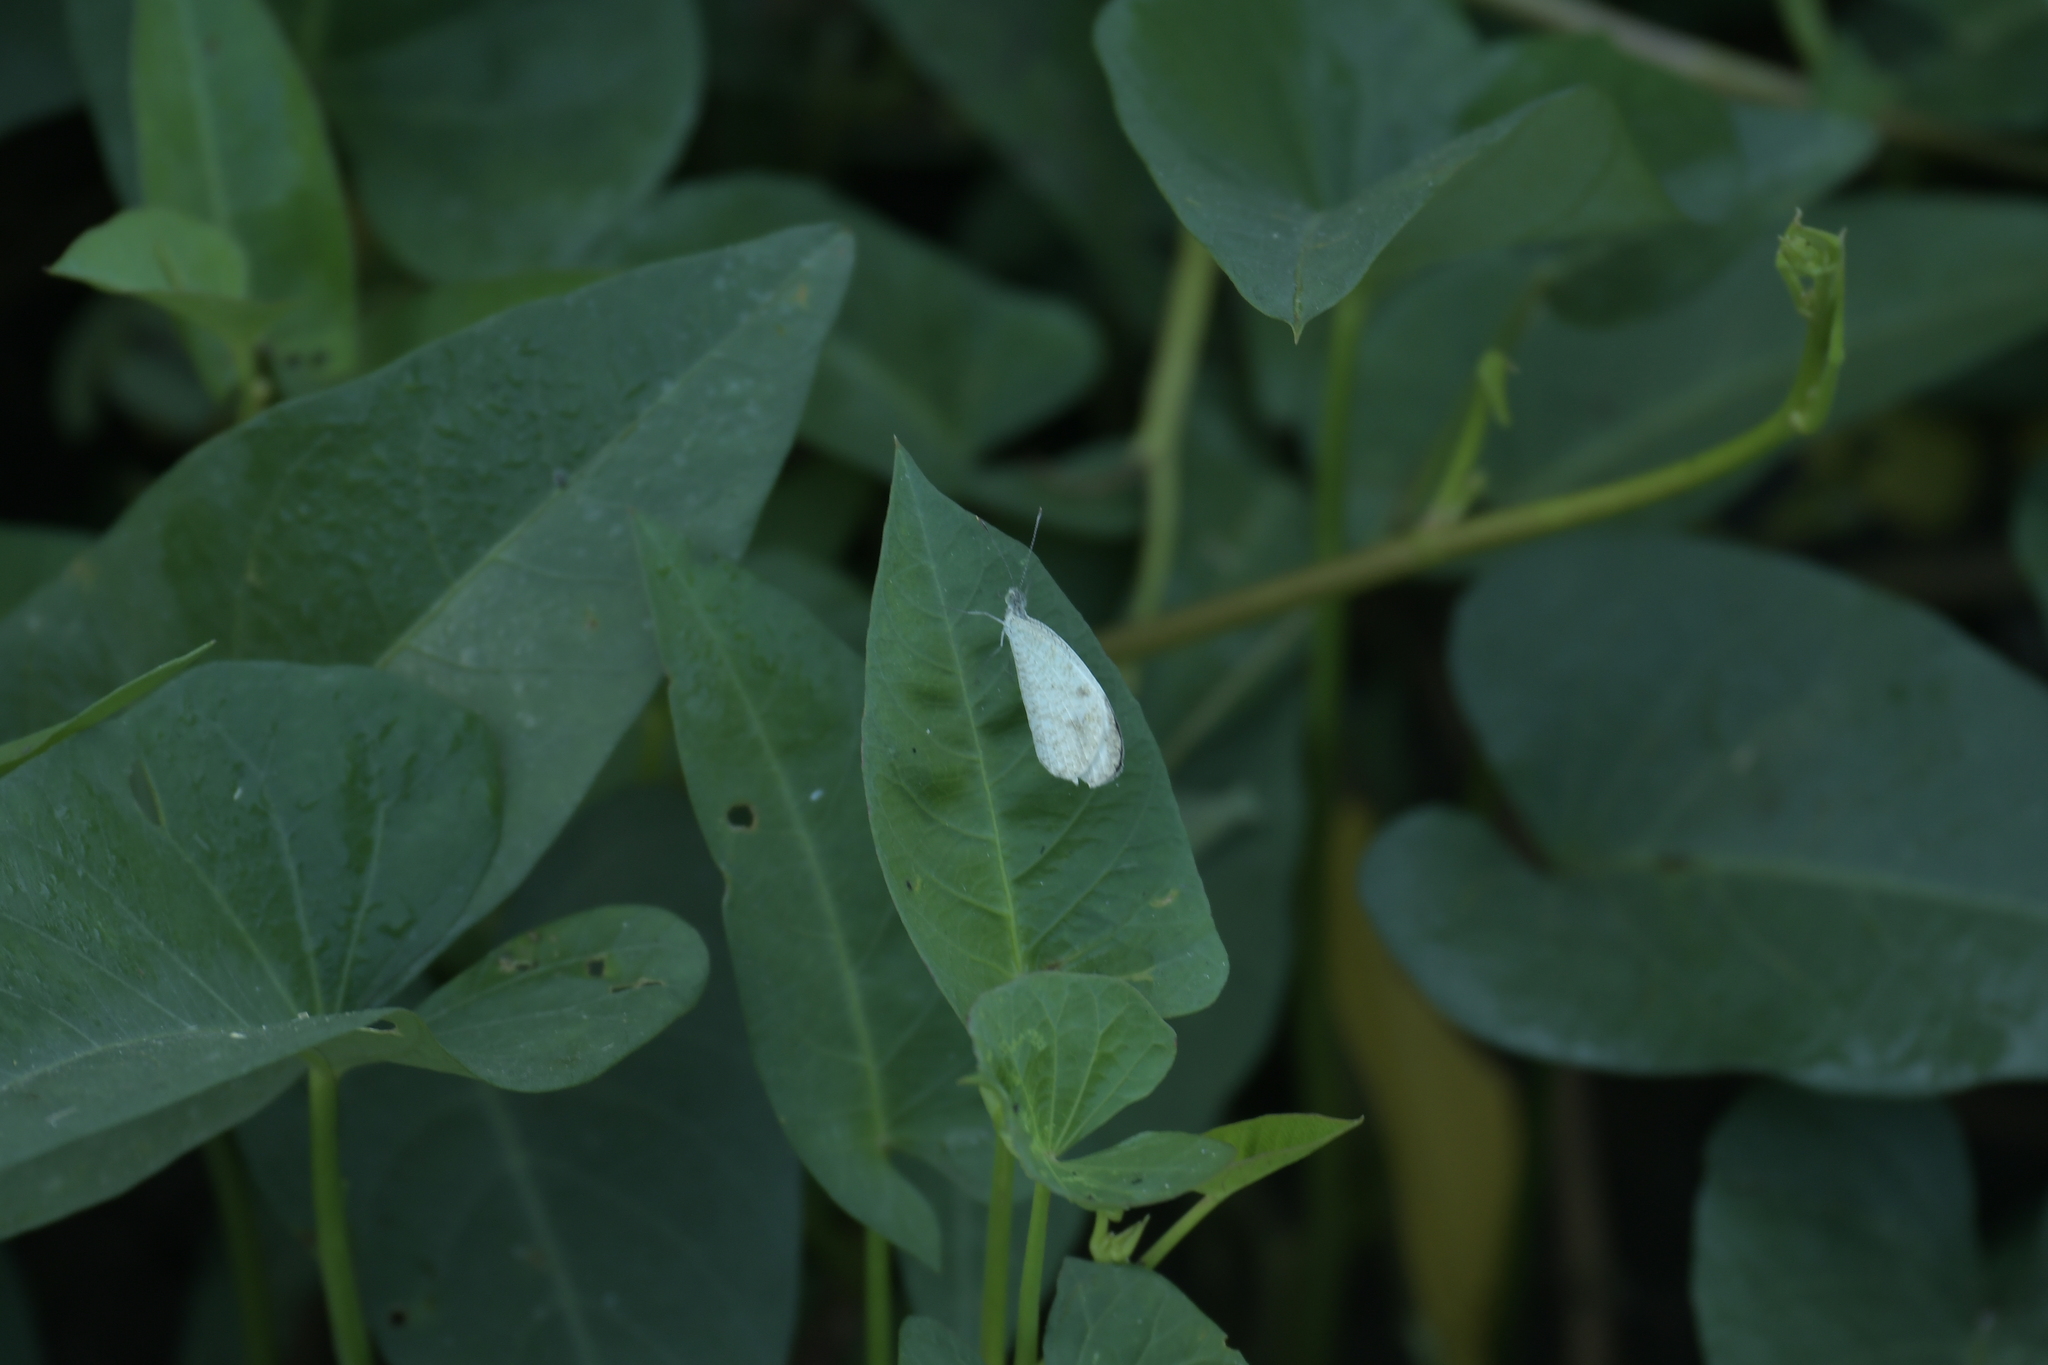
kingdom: Animalia
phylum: Arthropoda
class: Insecta
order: Lepidoptera
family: Pieridae
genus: Leptosia
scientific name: Leptosia nina
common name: Psyche
